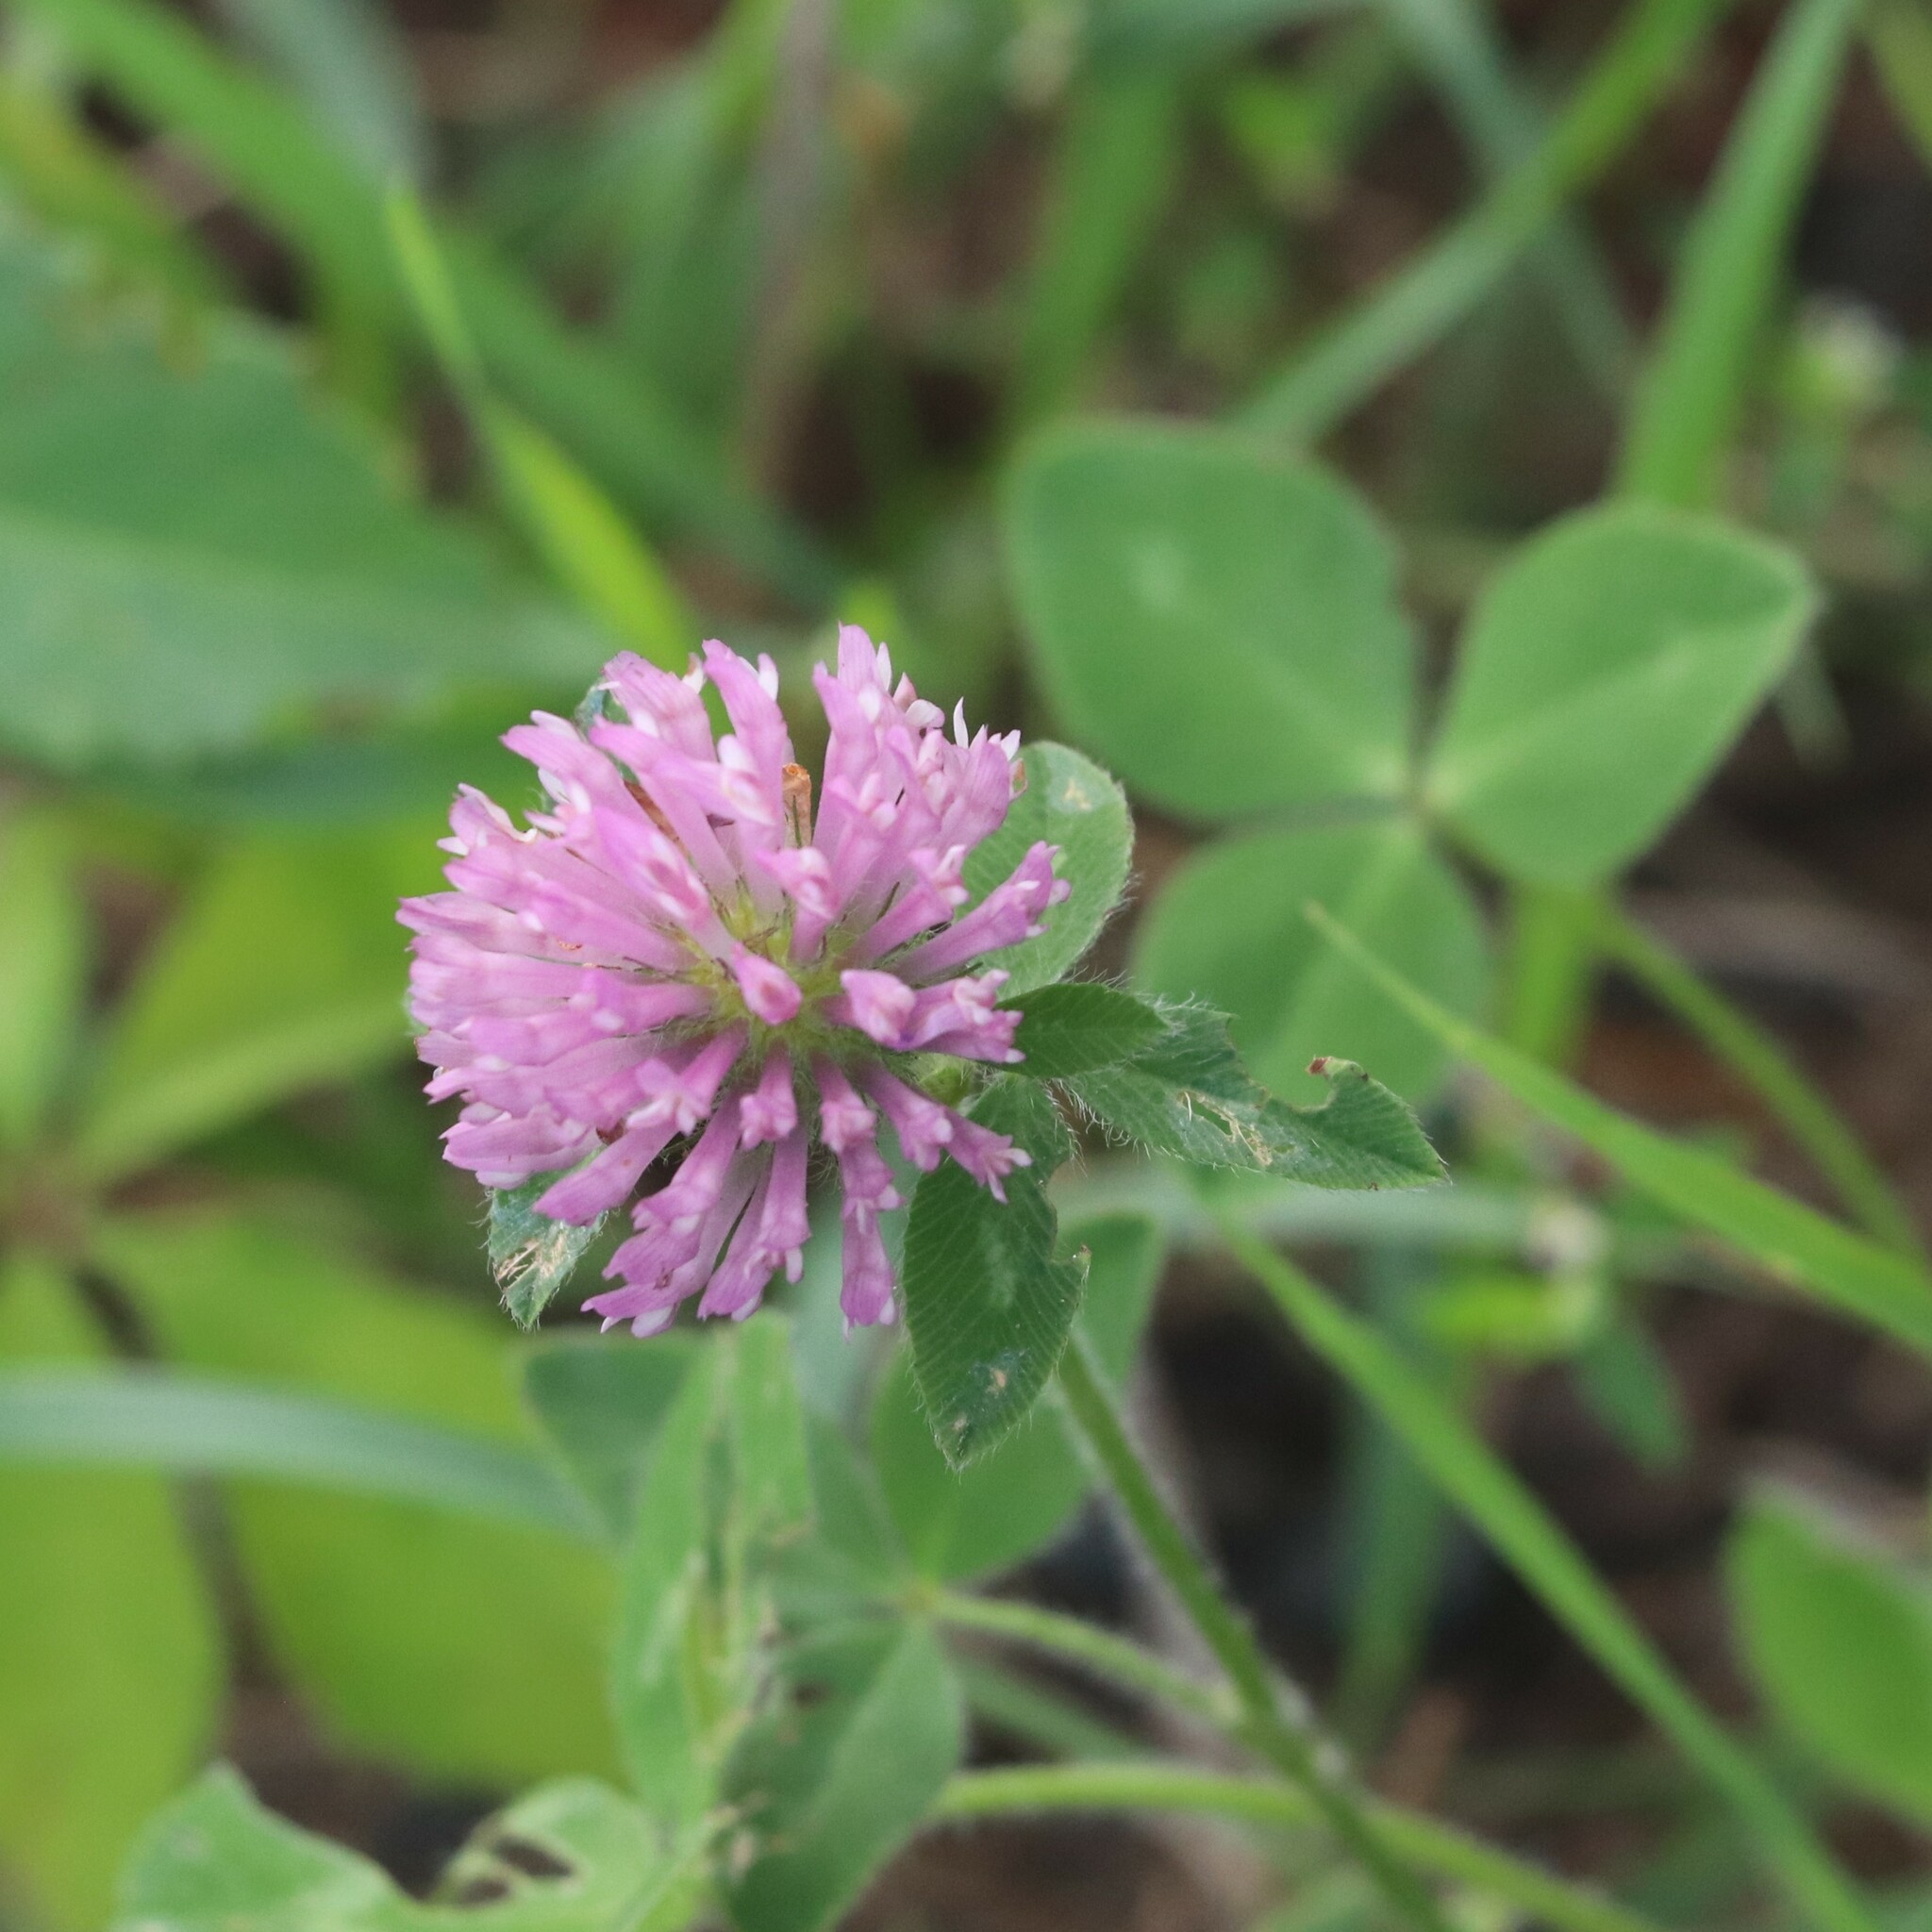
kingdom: Plantae
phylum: Tracheophyta
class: Magnoliopsida
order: Fabales
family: Fabaceae
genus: Trifolium
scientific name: Trifolium pratense
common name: Red clover
